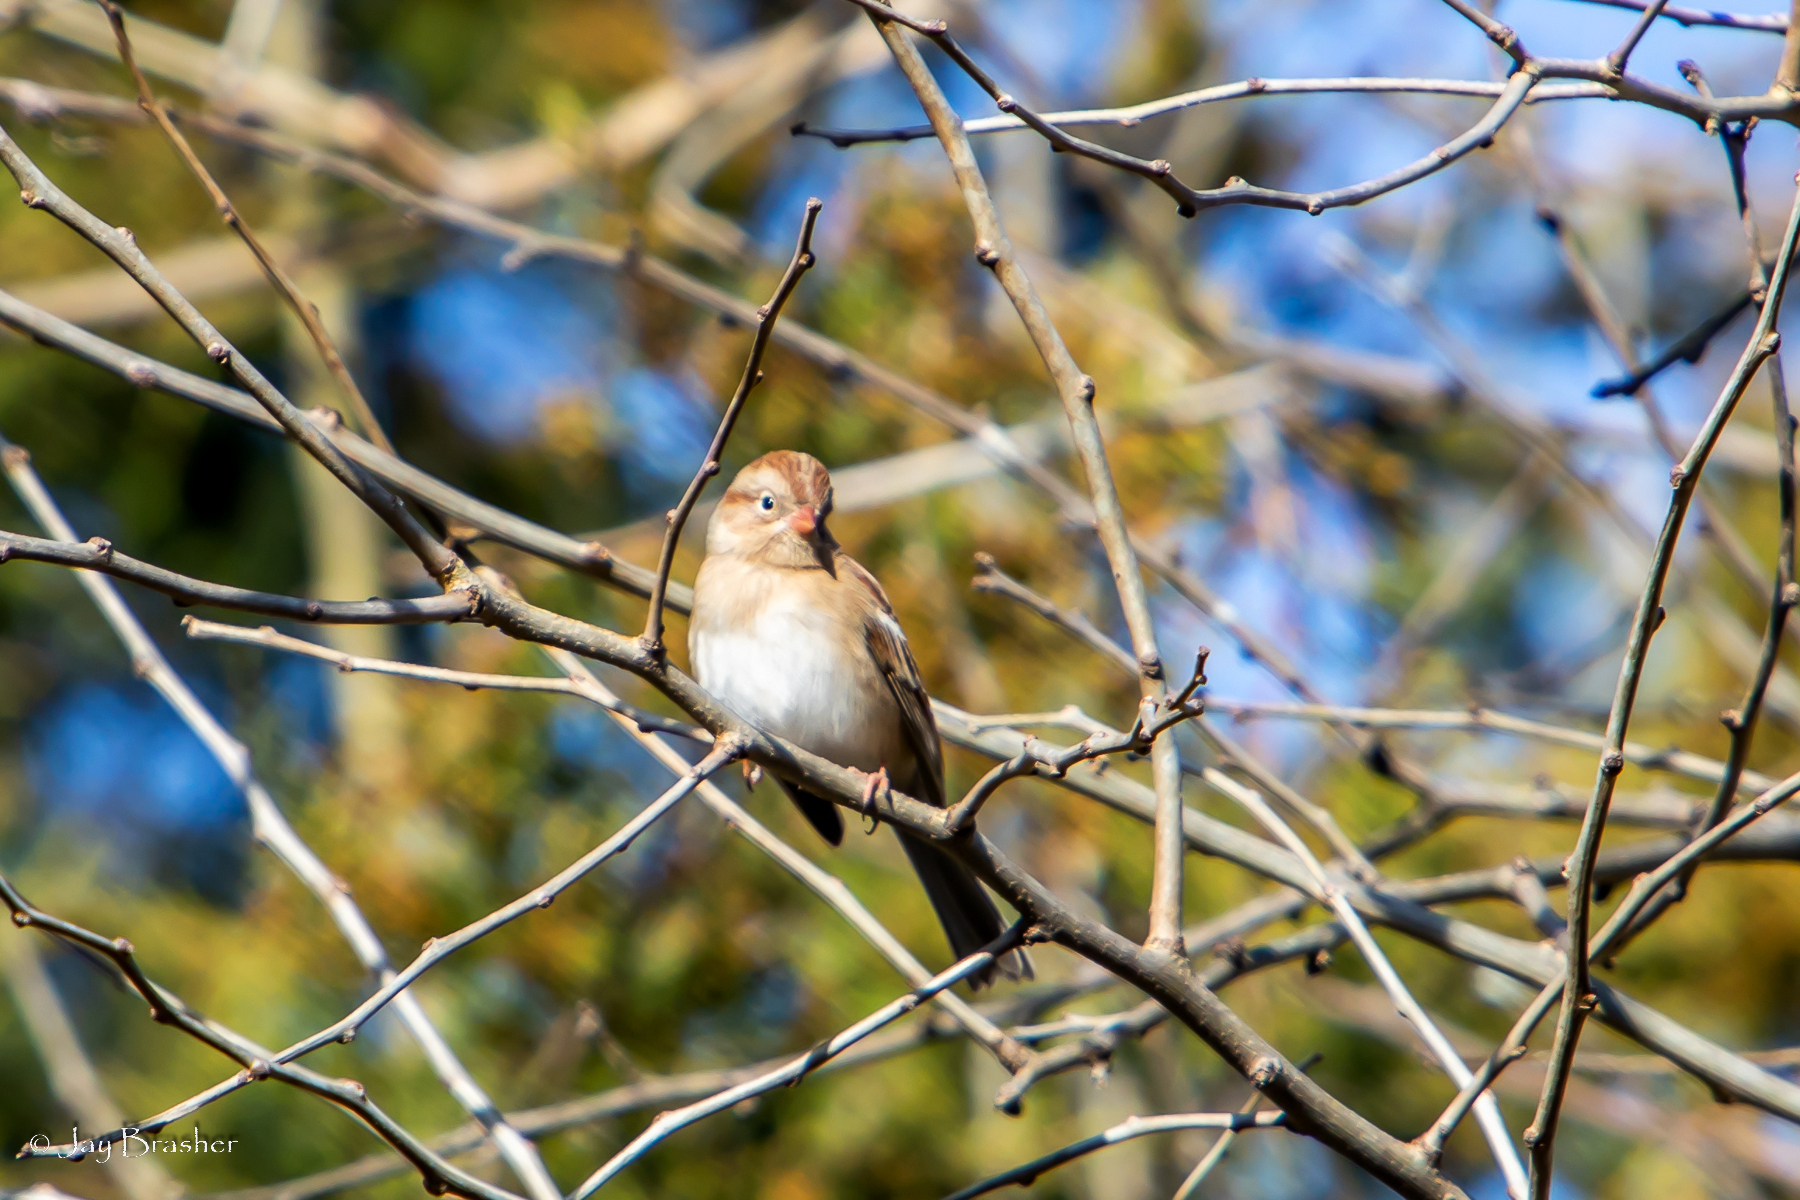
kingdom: Animalia
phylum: Chordata
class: Aves
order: Passeriformes
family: Passerellidae
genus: Spizella
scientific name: Spizella pusilla
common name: Field sparrow
